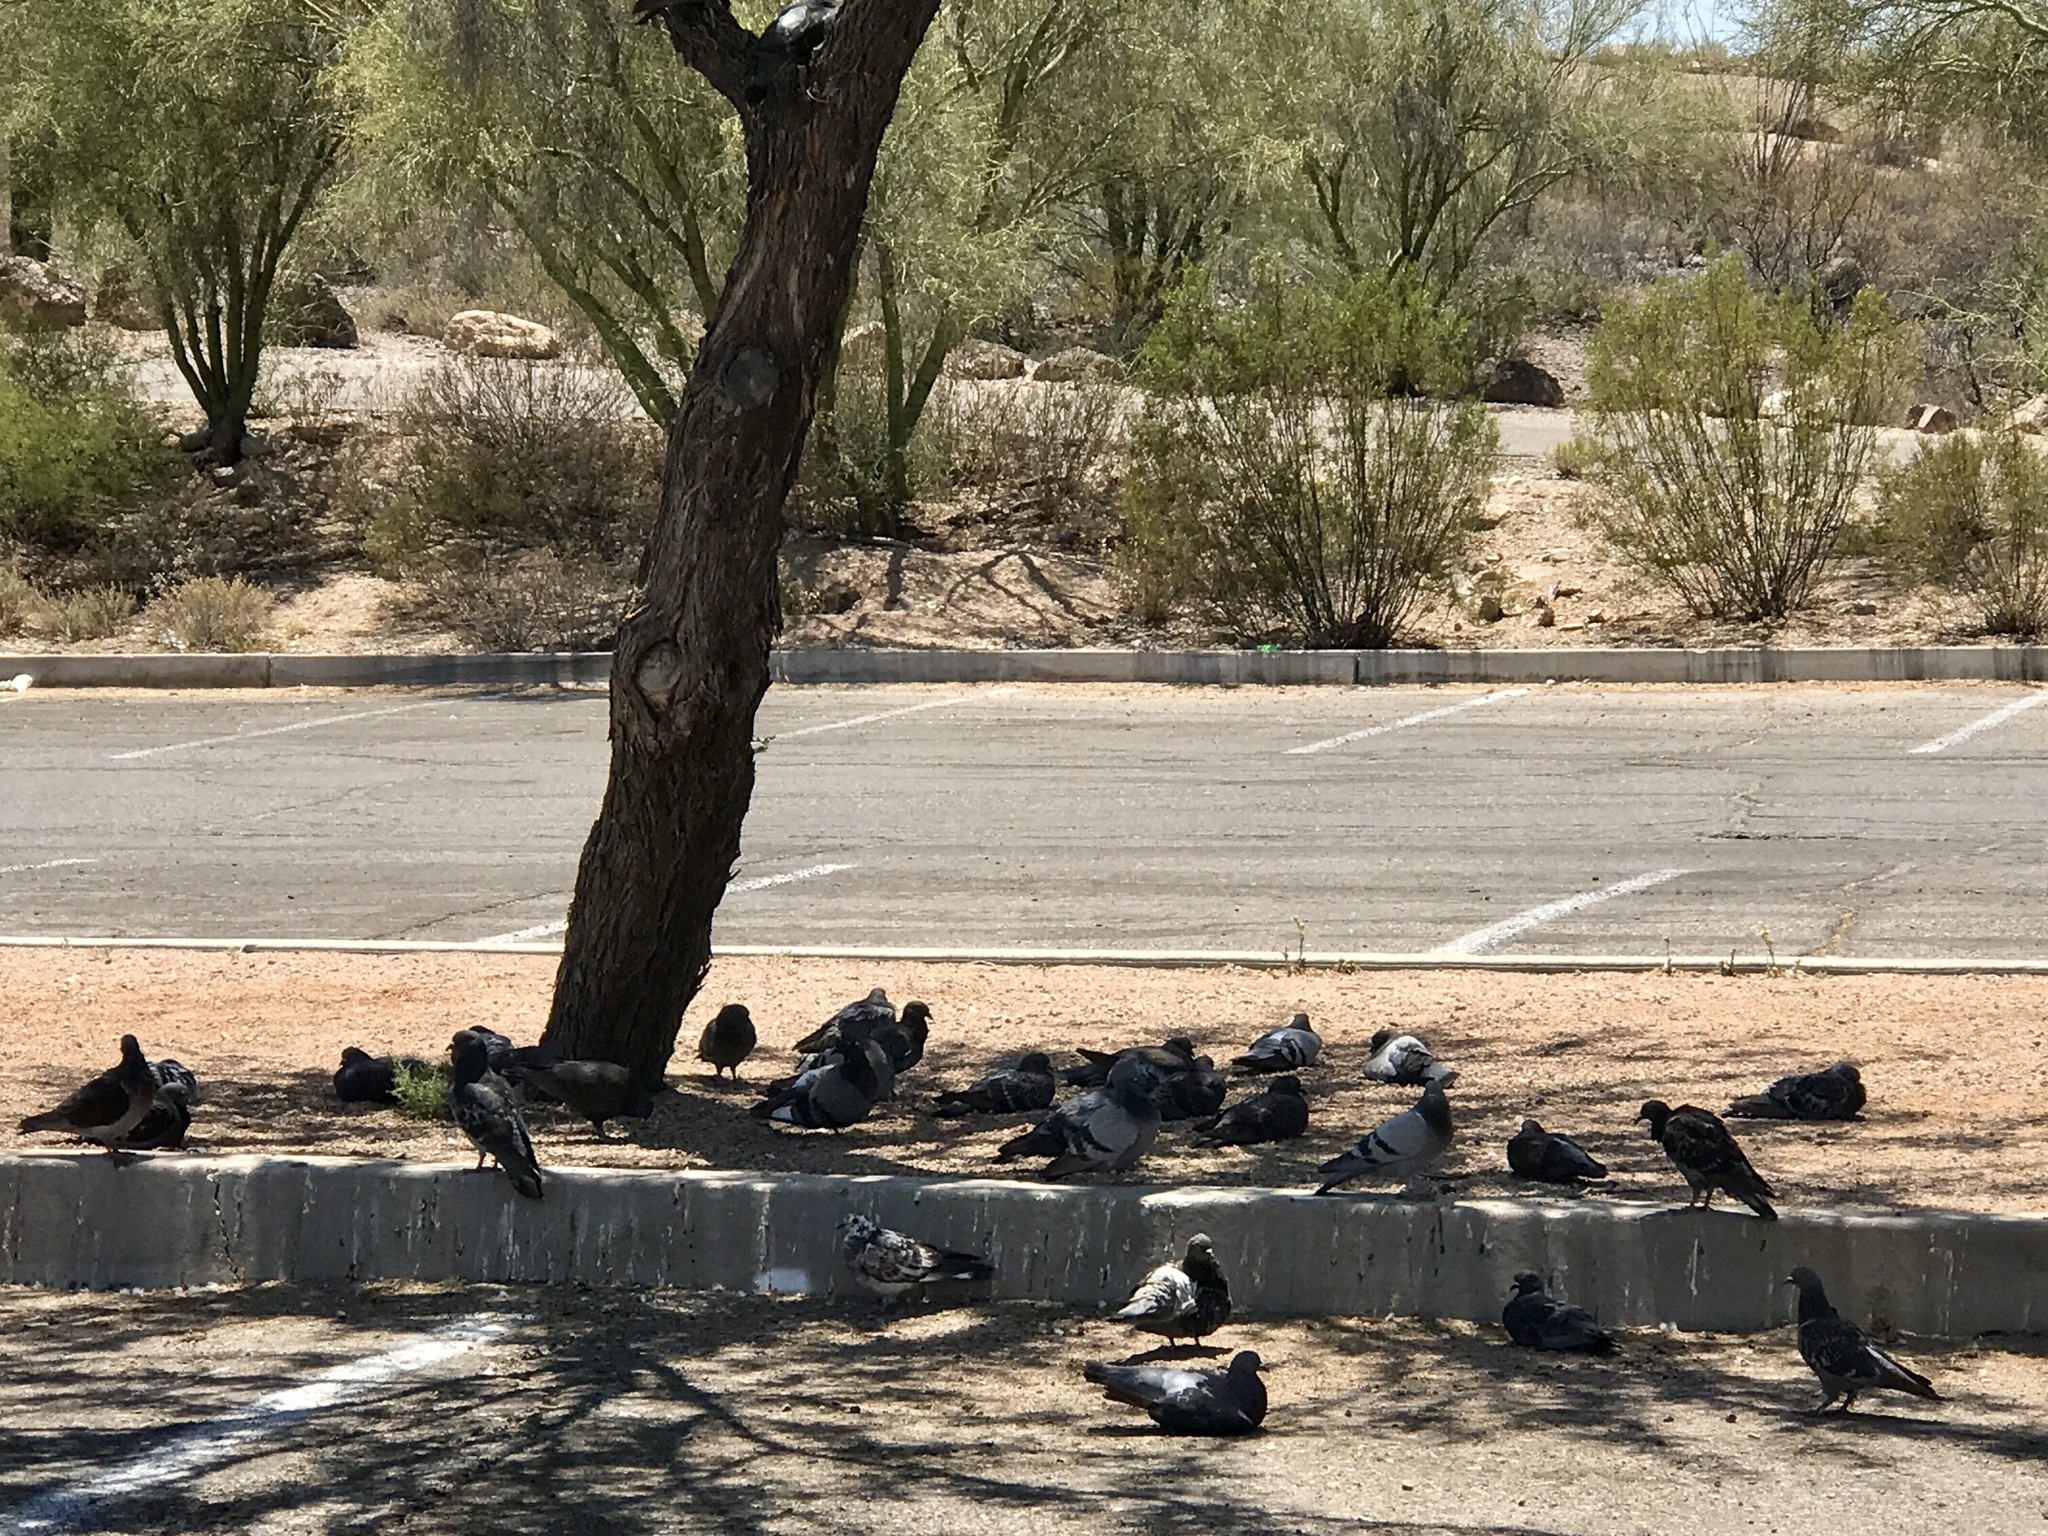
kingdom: Animalia
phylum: Chordata
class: Aves
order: Columbiformes
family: Columbidae
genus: Columba
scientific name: Columba livia
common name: Rock pigeon
